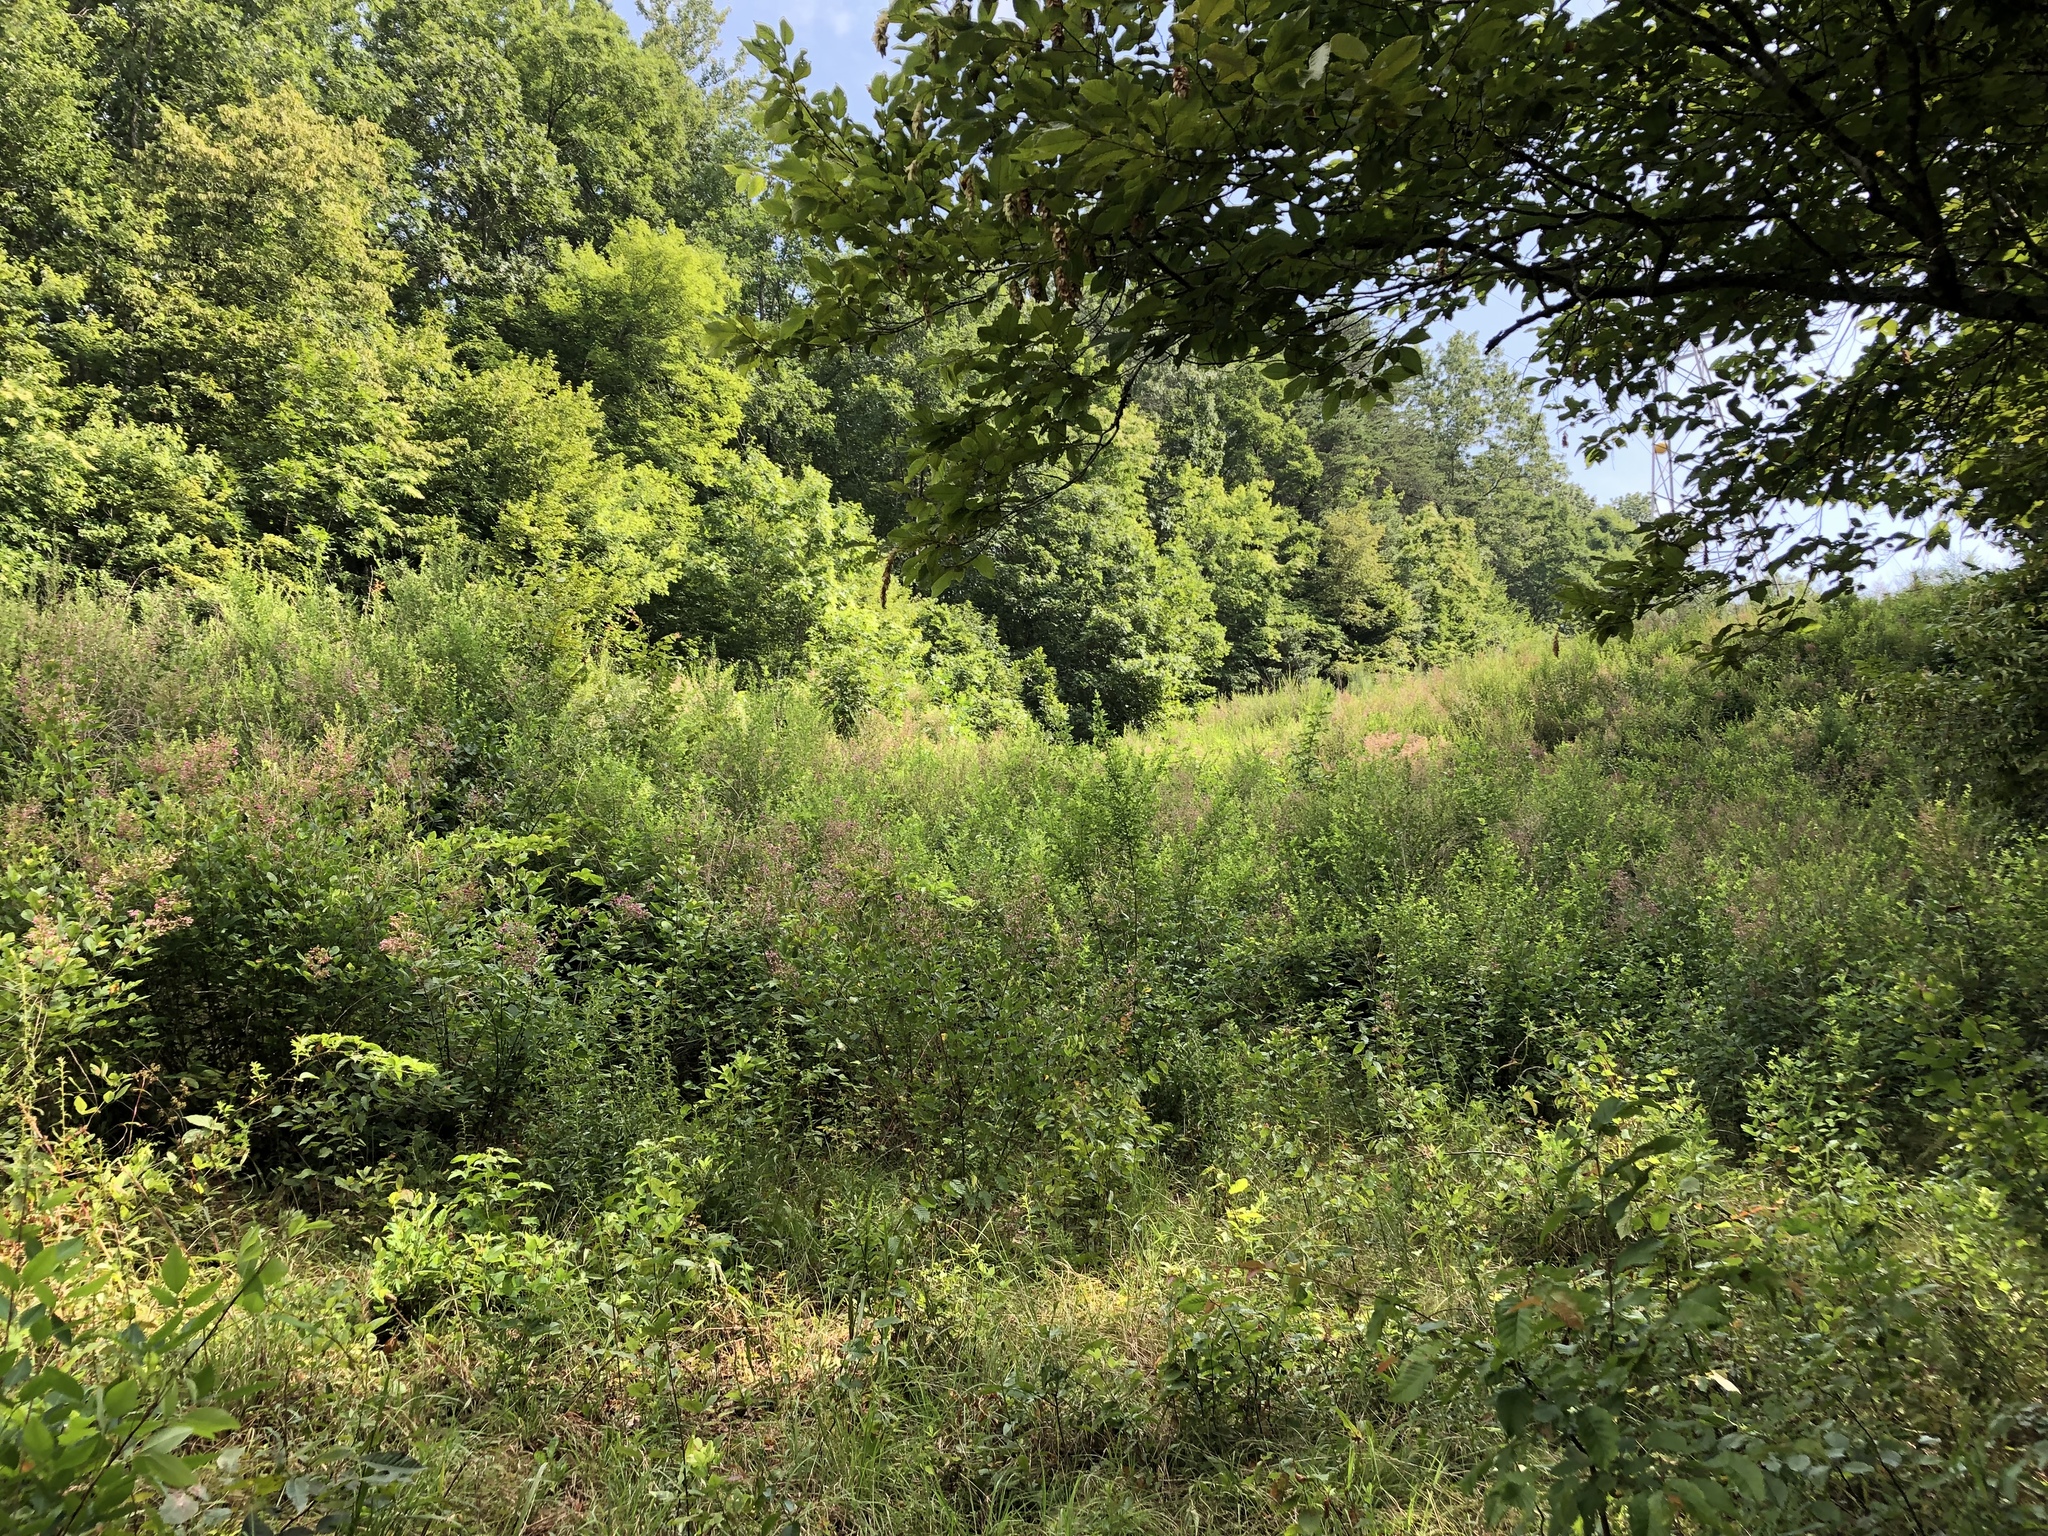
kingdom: Plantae
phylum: Tracheophyta
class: Magnoliopsida
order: Fabales
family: Fabaceae
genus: Lespedeza
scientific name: Lespedeza bicolor
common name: Shrub lespedeza
